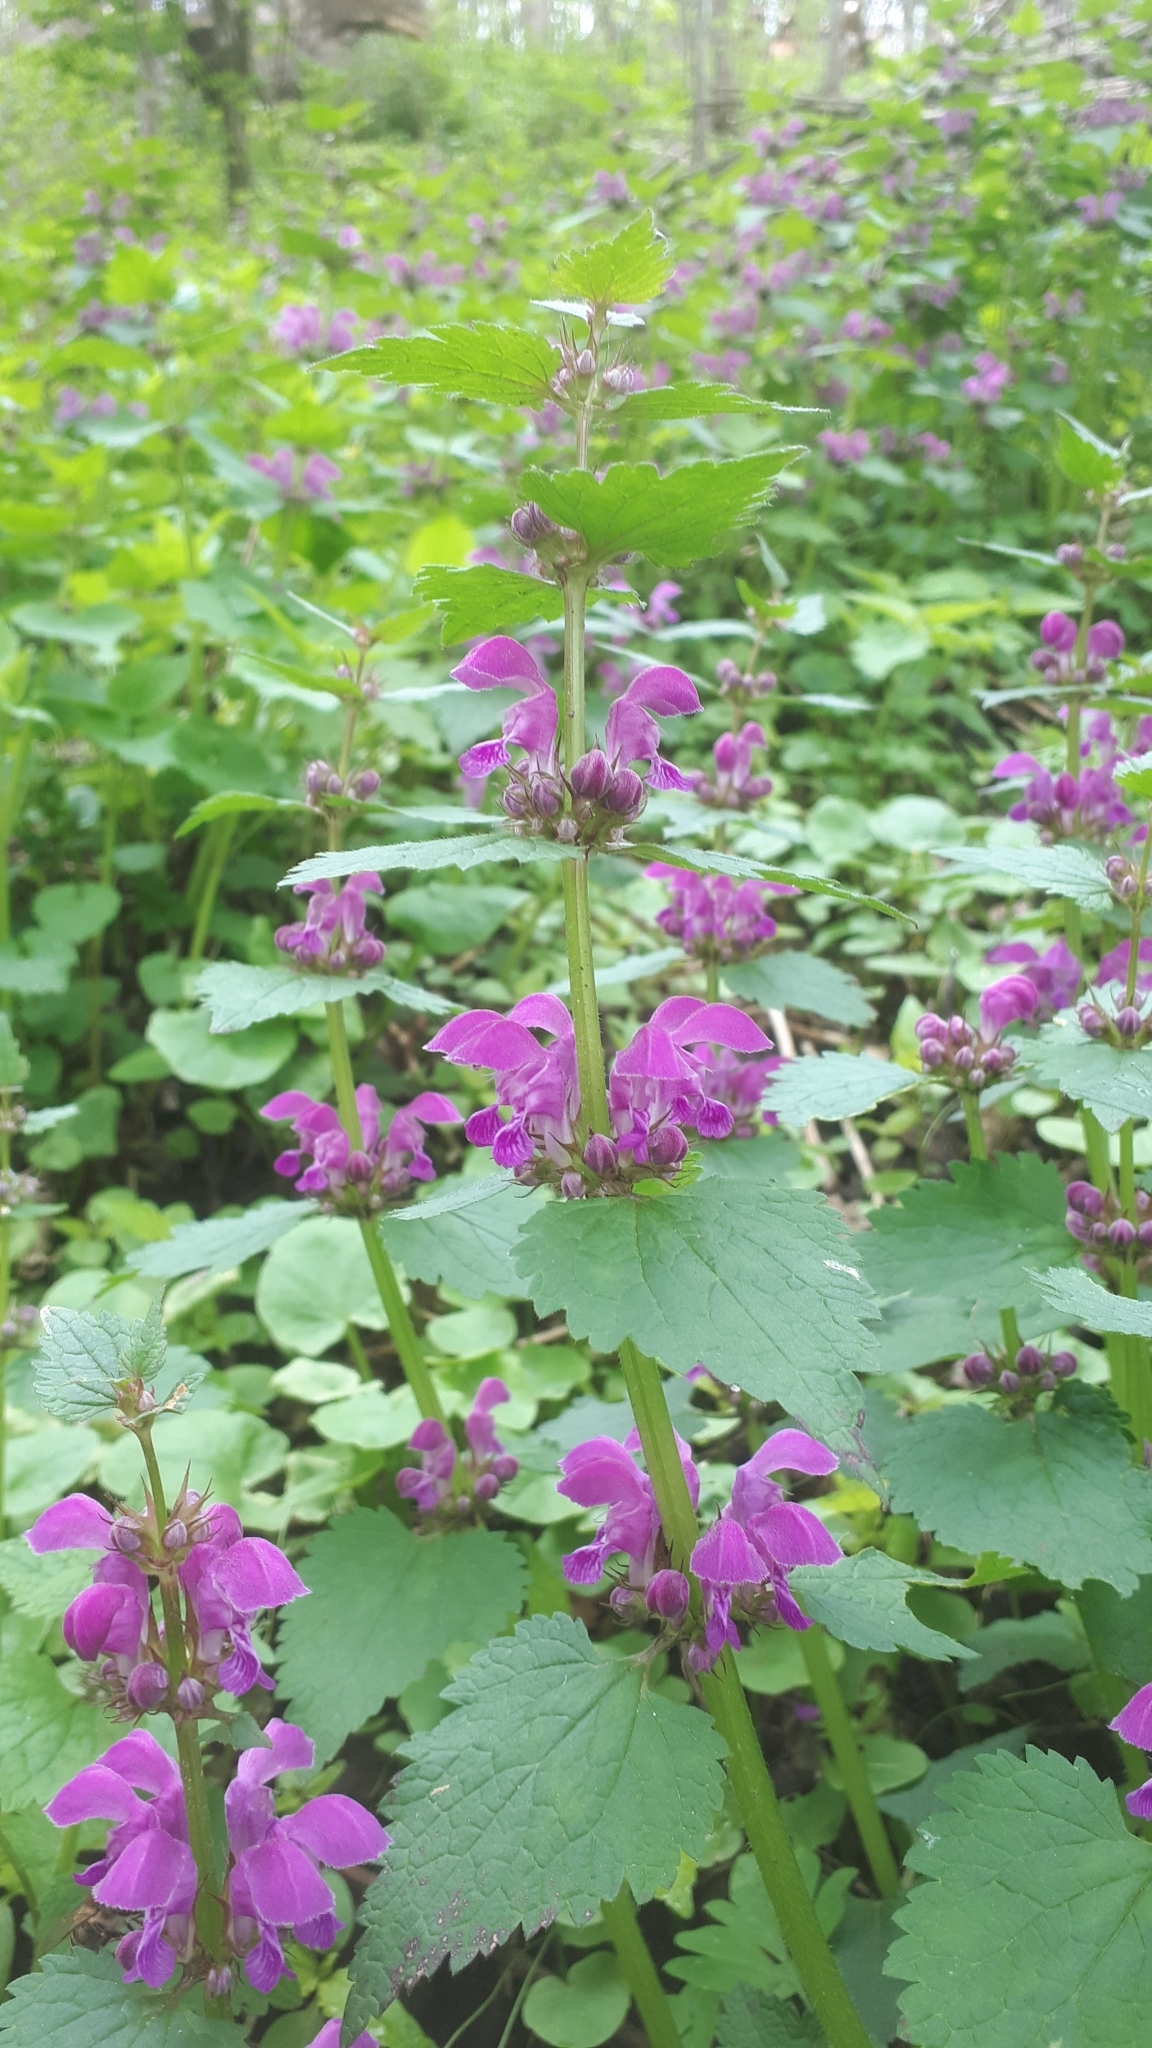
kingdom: Plantae
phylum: Tracheophyta
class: Magnoliopsida
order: Lamiales
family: Lamiaceae
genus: Lamium
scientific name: Lamium maculatum
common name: Spotted dead-nettle
